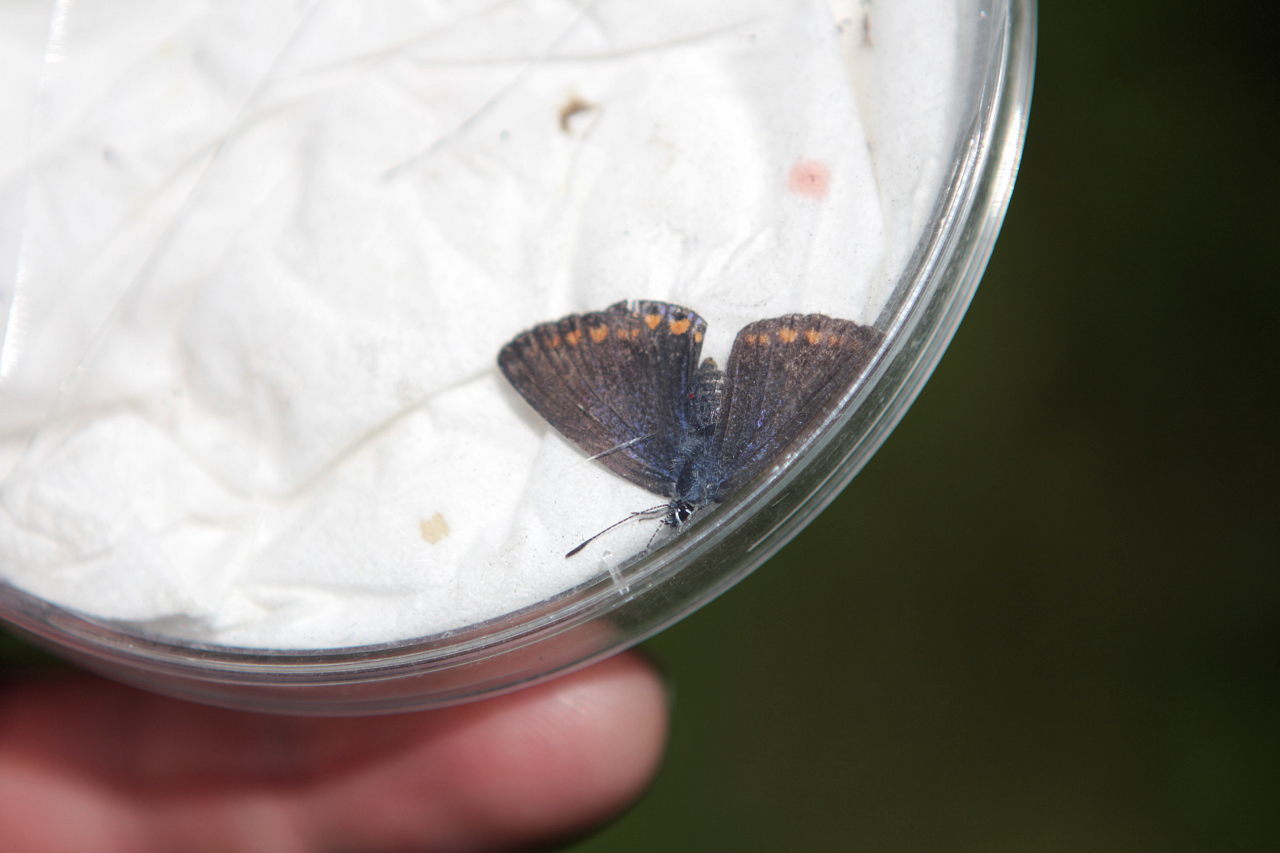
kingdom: Animalia
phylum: Arthropoda
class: Insecta
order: Lepidoptera
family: Lycaenidae
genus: Polyommatus
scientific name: Polyommatus icarus
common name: Common blue
